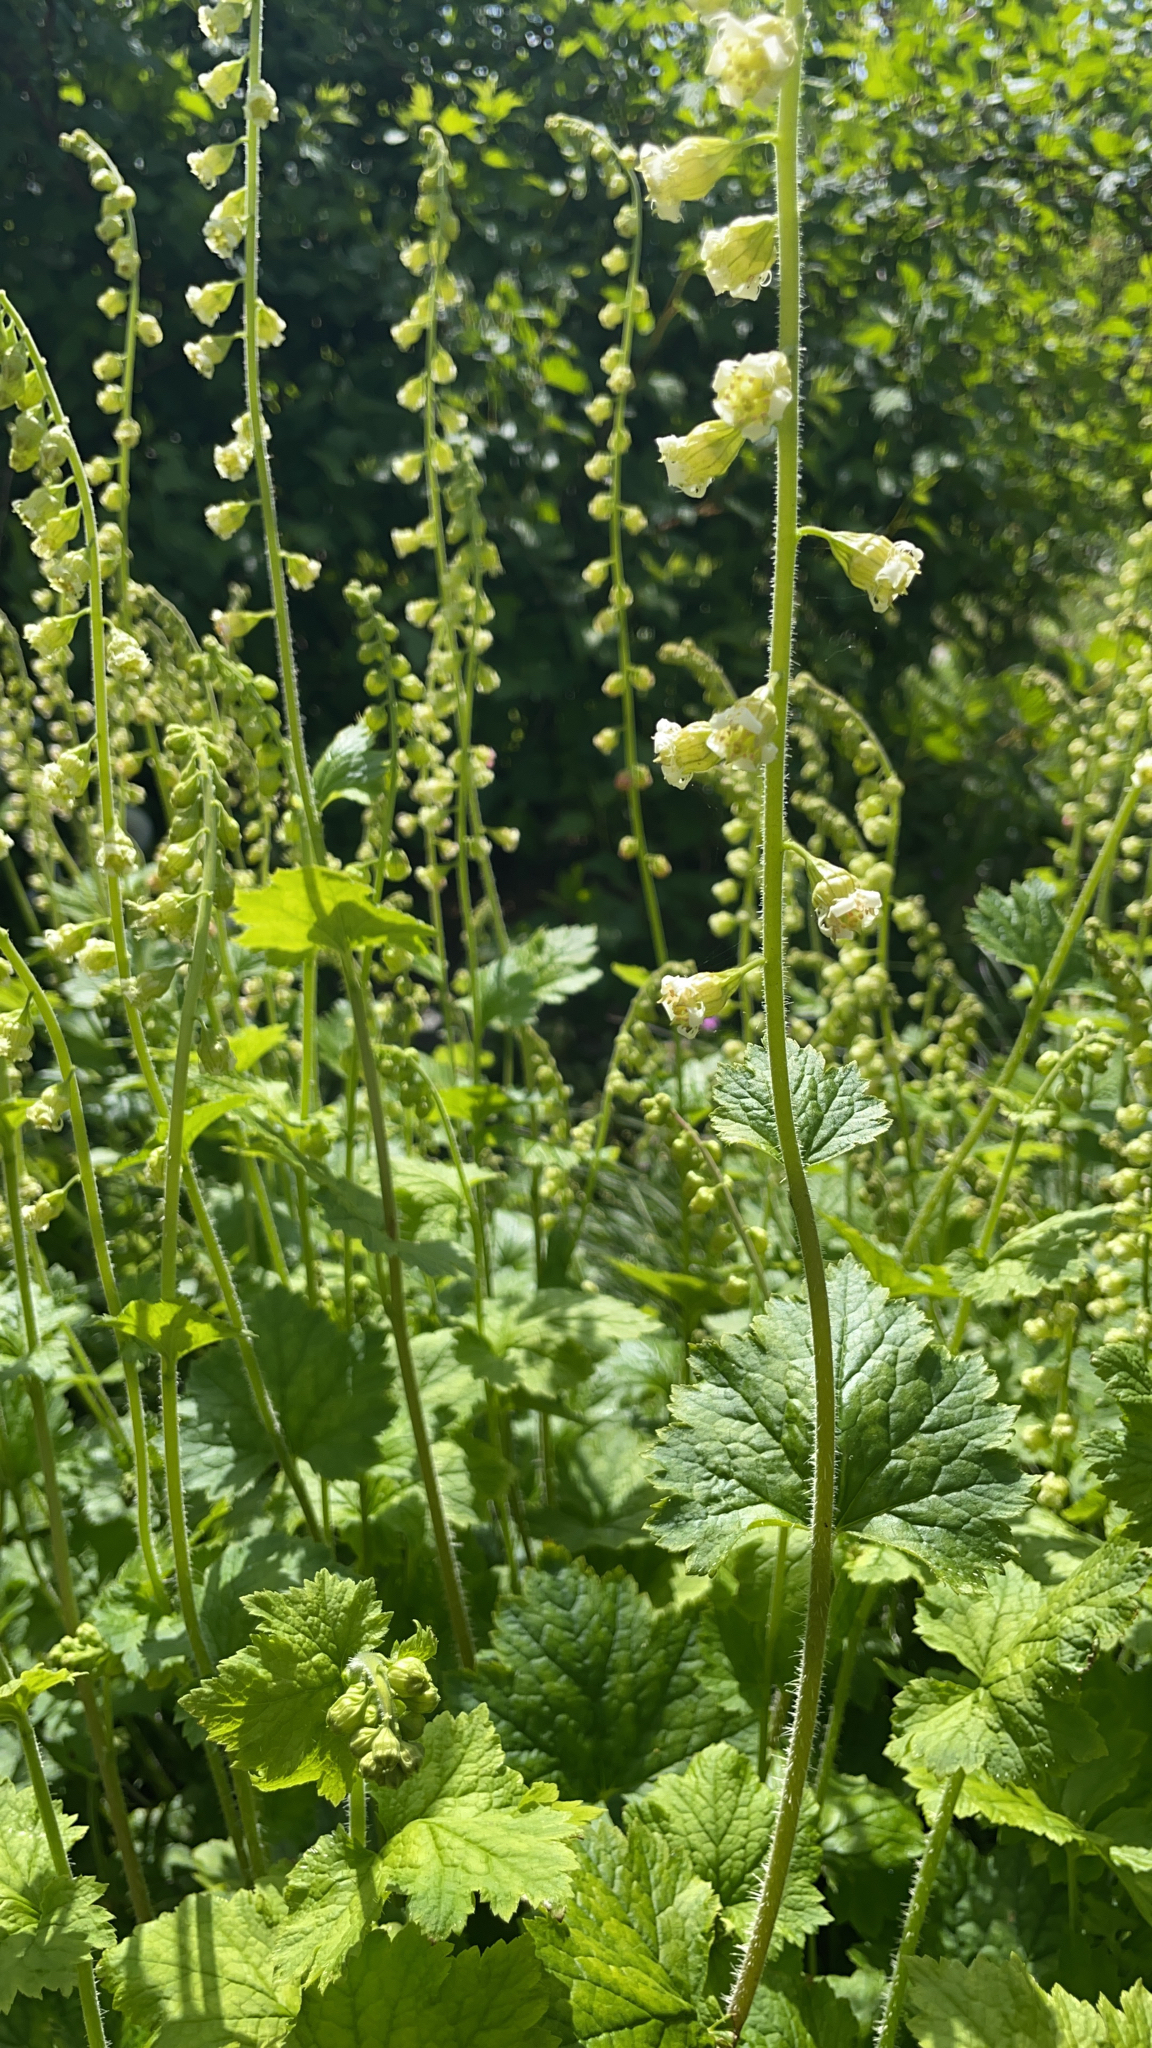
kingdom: Plantae
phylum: Tracheophyta
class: Magnoliopsida
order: Saxifragales
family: Saxifragaceae
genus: Tellima
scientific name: Tellima grandiflora
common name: Fringecups
